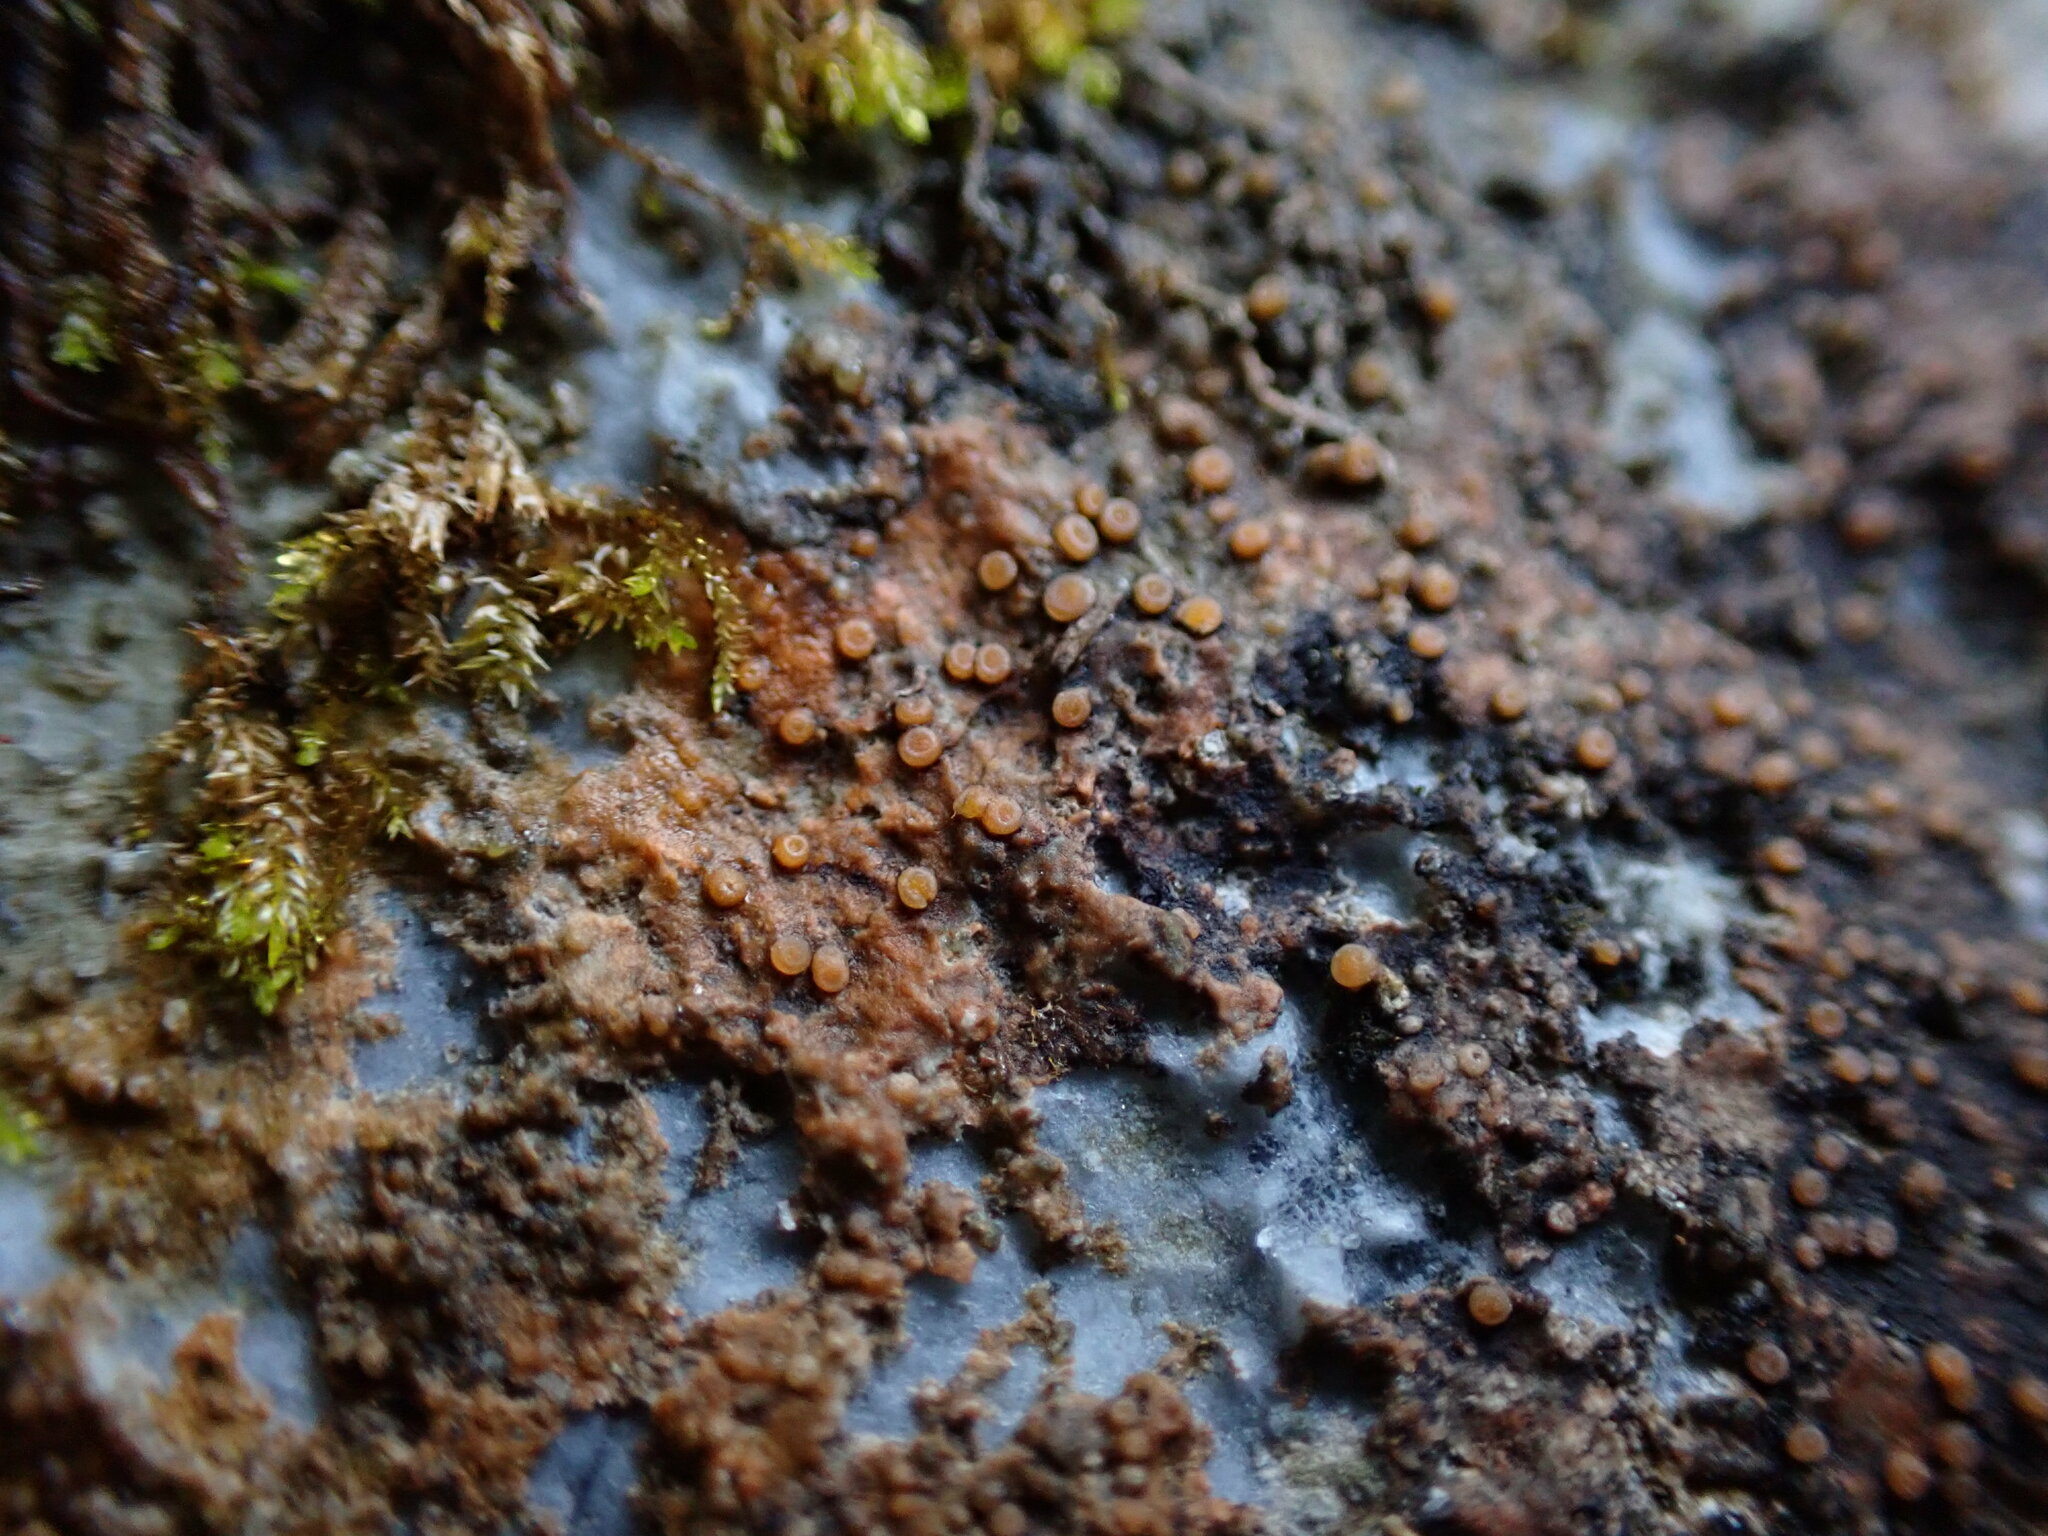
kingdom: Fungi
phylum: Ascomycota
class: Lecanoromycetes
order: Gyalectales
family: Gyalectaceae
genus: Gyalecta
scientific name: Gyalecta jenensis
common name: Rock dimple lichen
